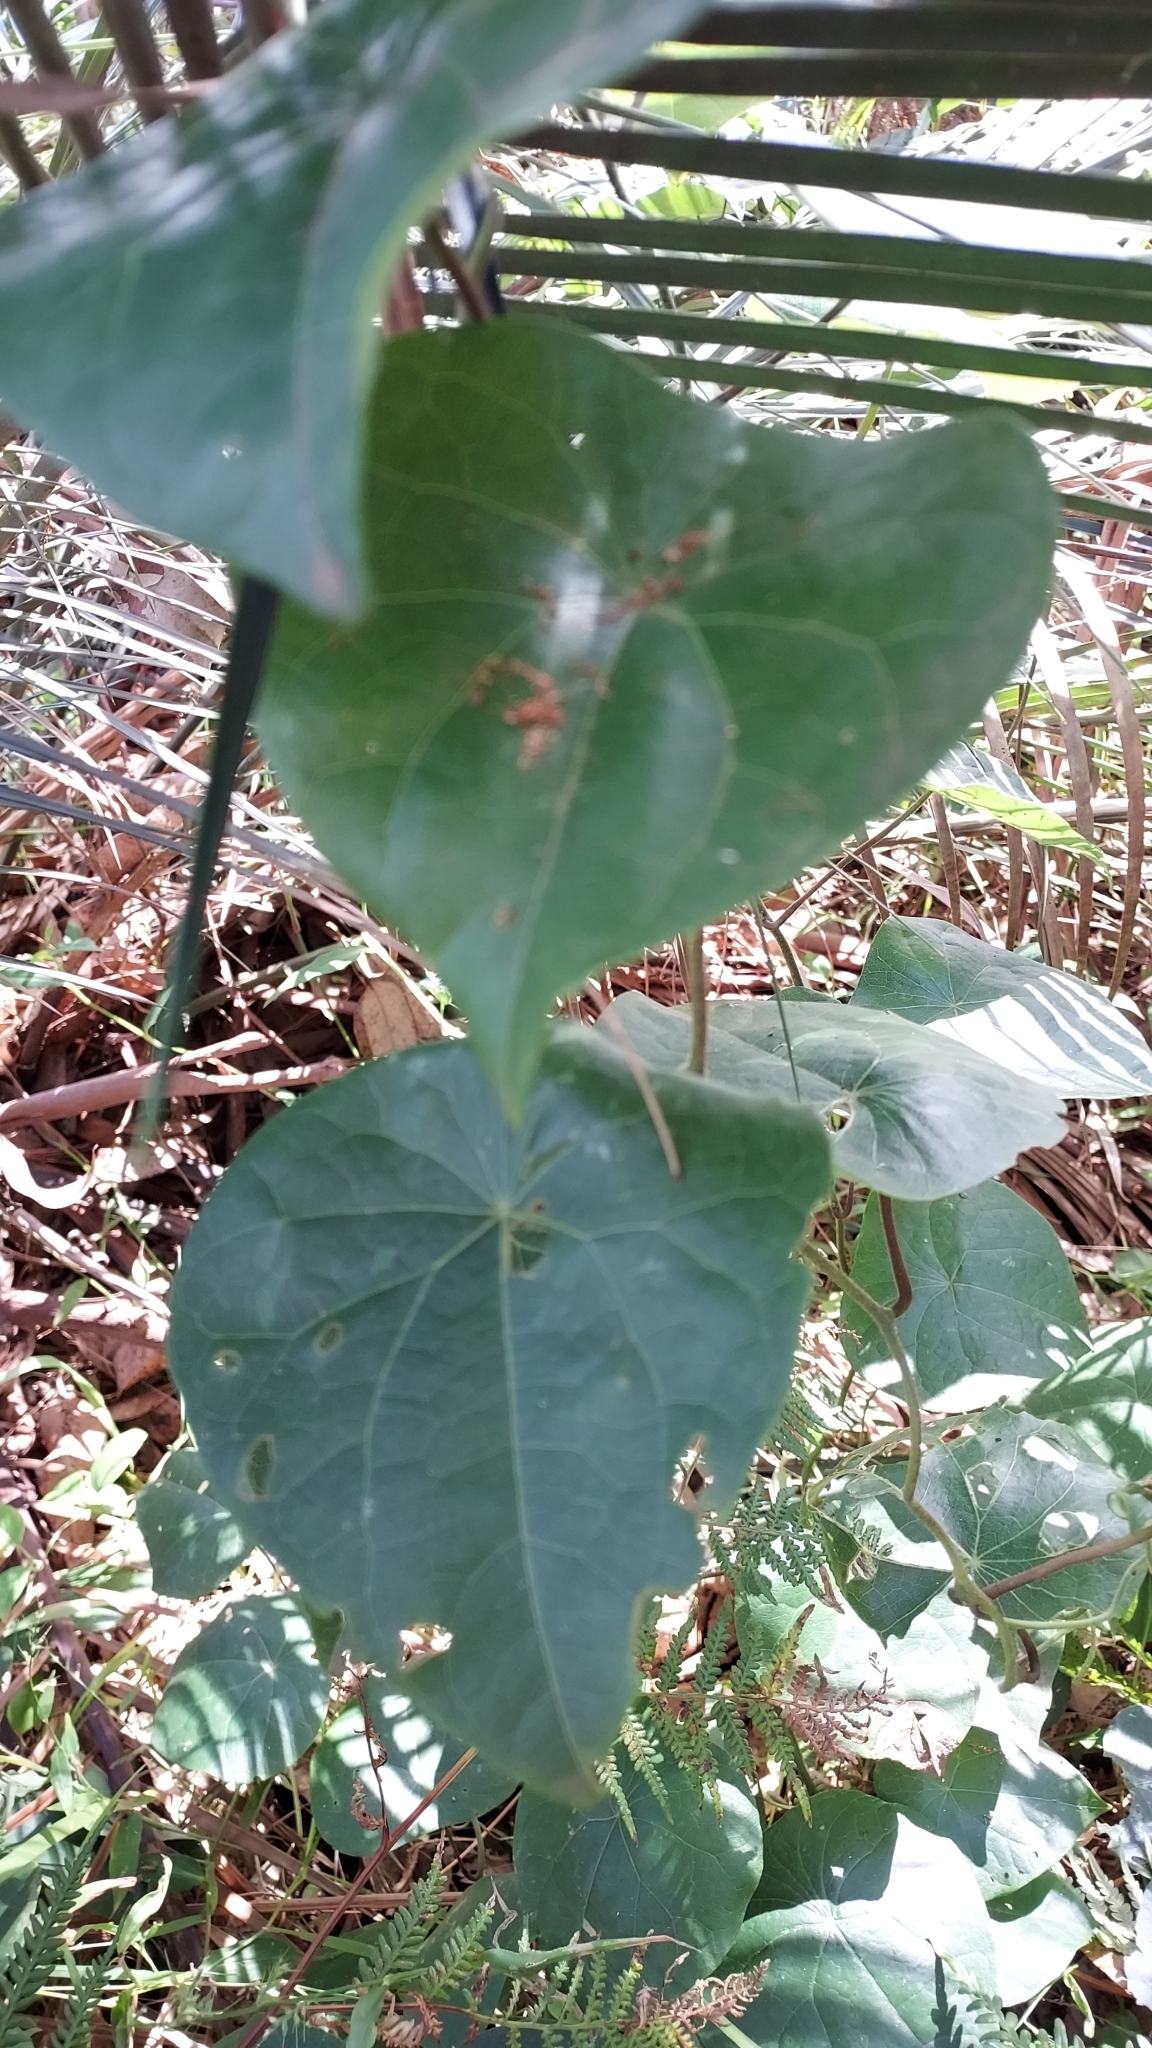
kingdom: Plantae
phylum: Tracheophyta
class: Magnoliopsida
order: Ranunculales
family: Menispermaceae
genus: Stephania
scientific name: Stephania japonica
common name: Snake vine
